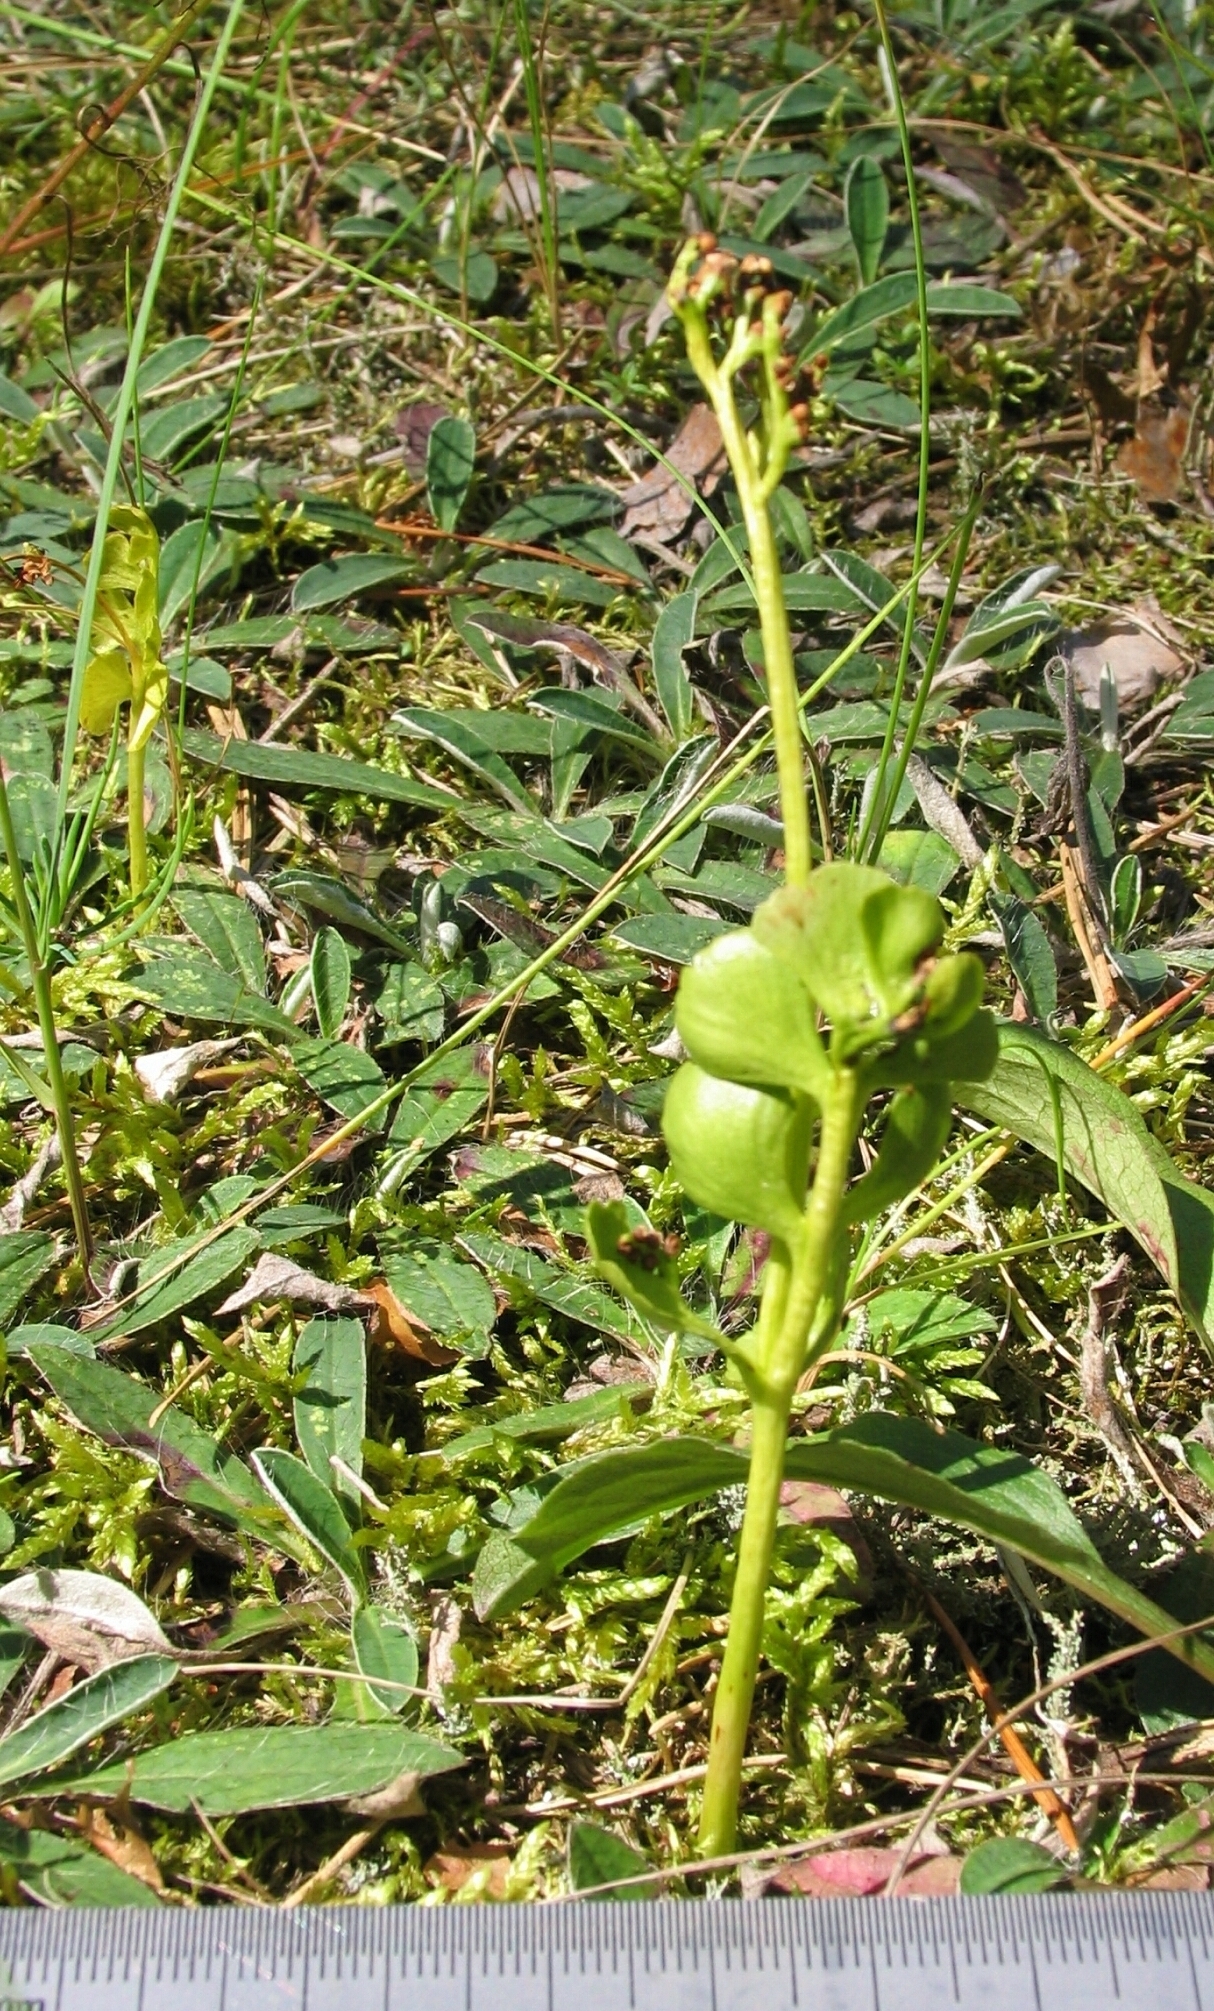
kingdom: Plantae
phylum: Tracheophyta
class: Polypodiopsida
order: Ophioglossales
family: Ophioglossaceae
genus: Botrychium
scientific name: Botrychium lunaria
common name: Moonwort
